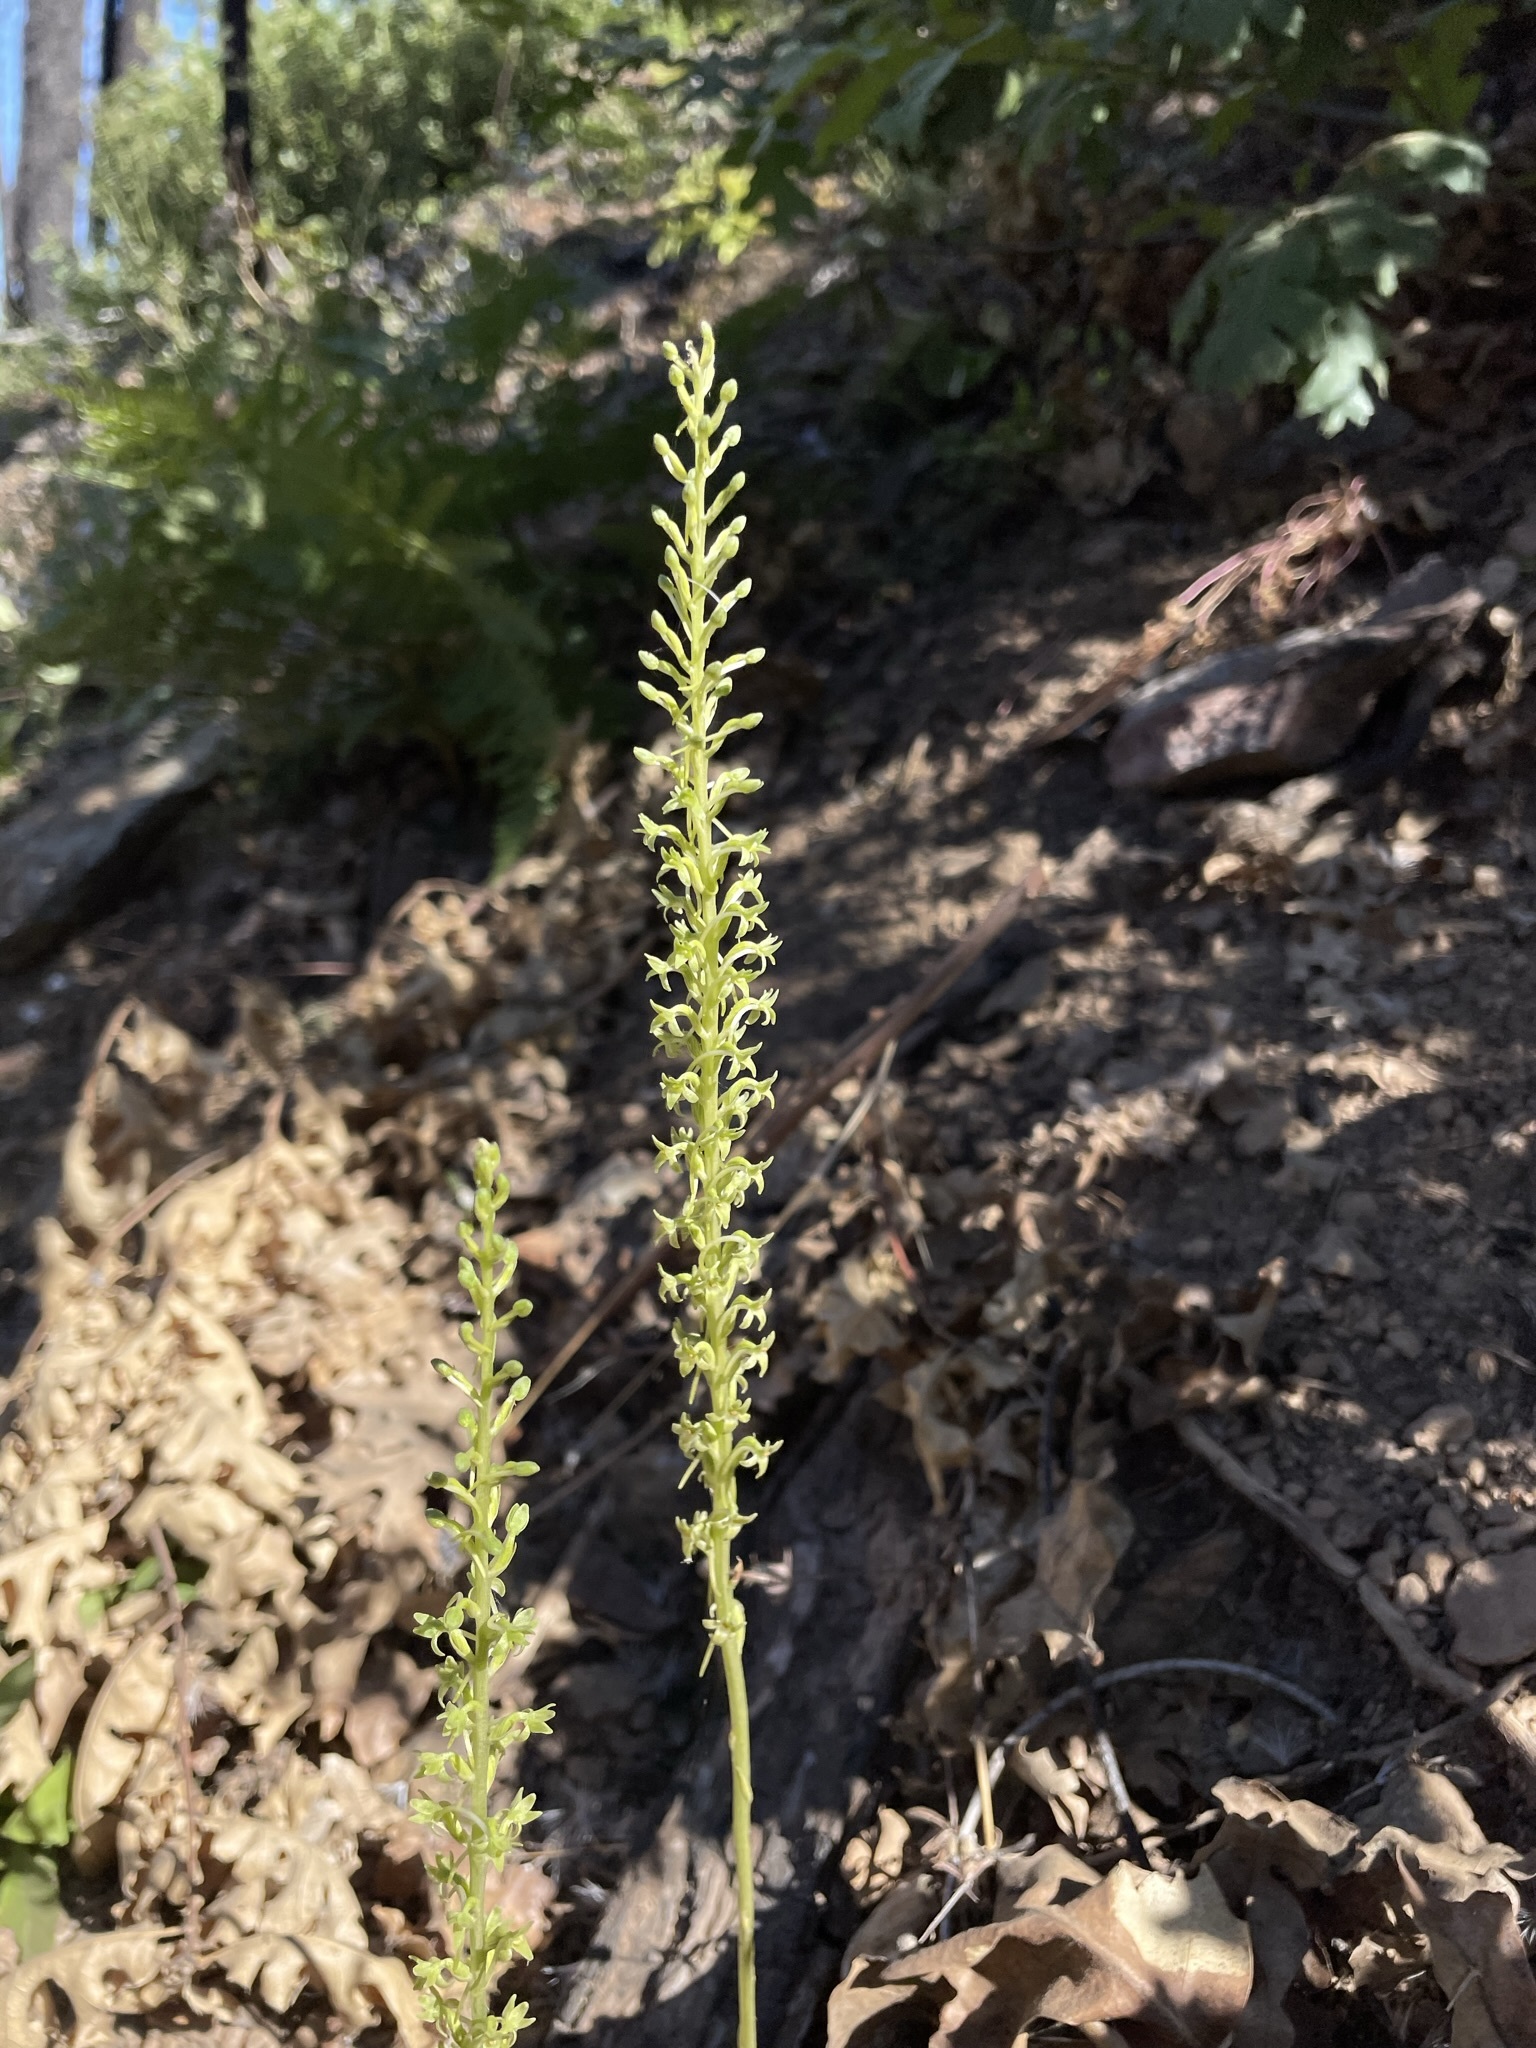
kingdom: Plantae
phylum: Tracheophyta
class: Liliopsida
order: Asparagales
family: Orchidaceae
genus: Platanthera
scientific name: Platanthera elongata
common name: Dense-flowered rein orchid
